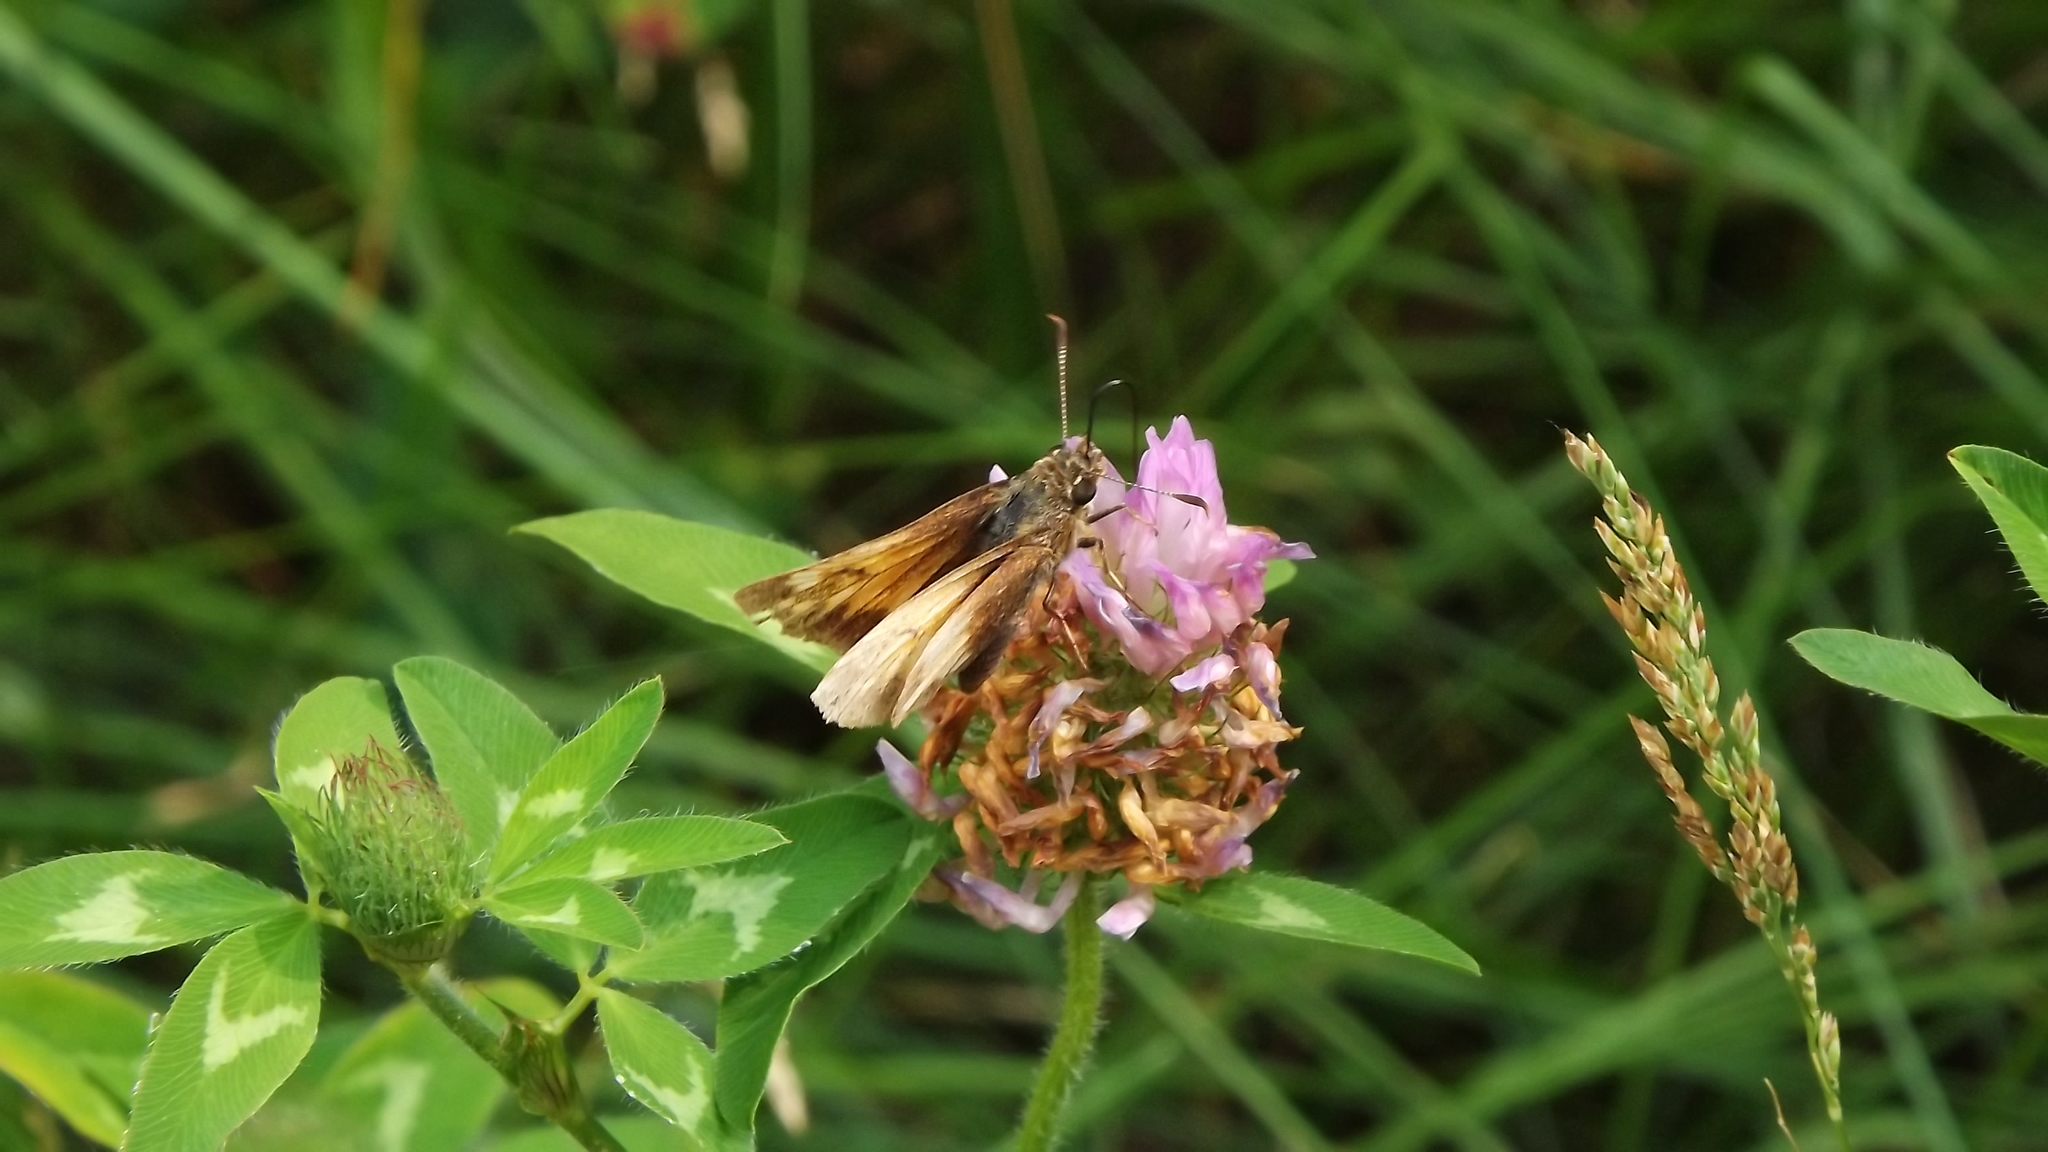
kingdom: Animalia
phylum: Arthropoda
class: Insecta
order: Lepidoptera
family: Hesperiidae
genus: Lon
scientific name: Lon hobomok
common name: Hobomok skipper
